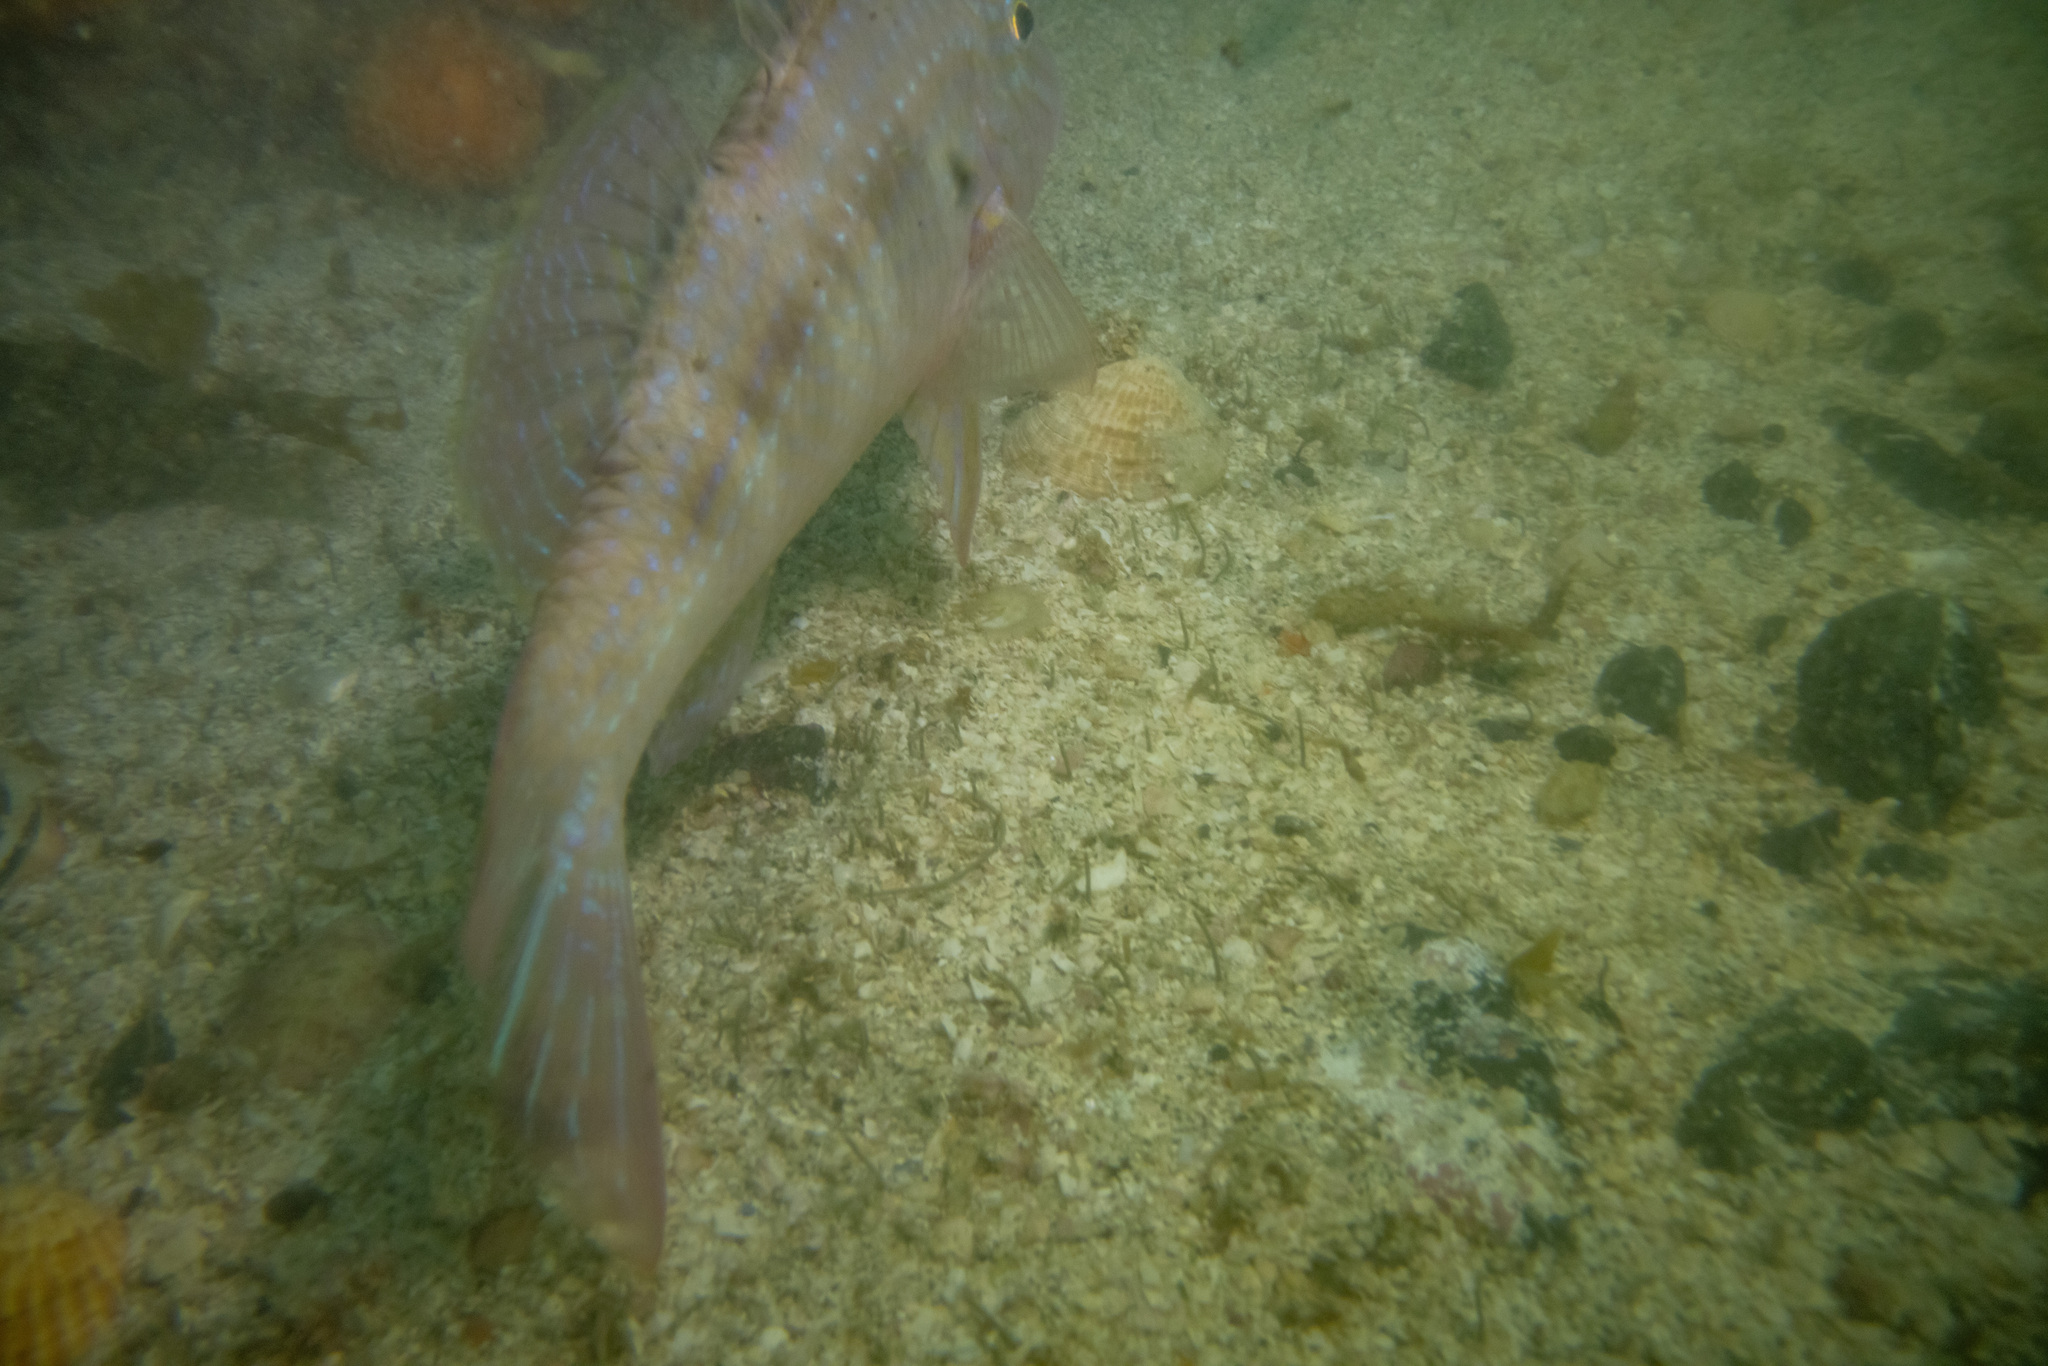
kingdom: Animalia
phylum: Chordata
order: Perciformes
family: Mullidae
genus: Upeneichthys
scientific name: Upeneichthys lineatus
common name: Red mullet
